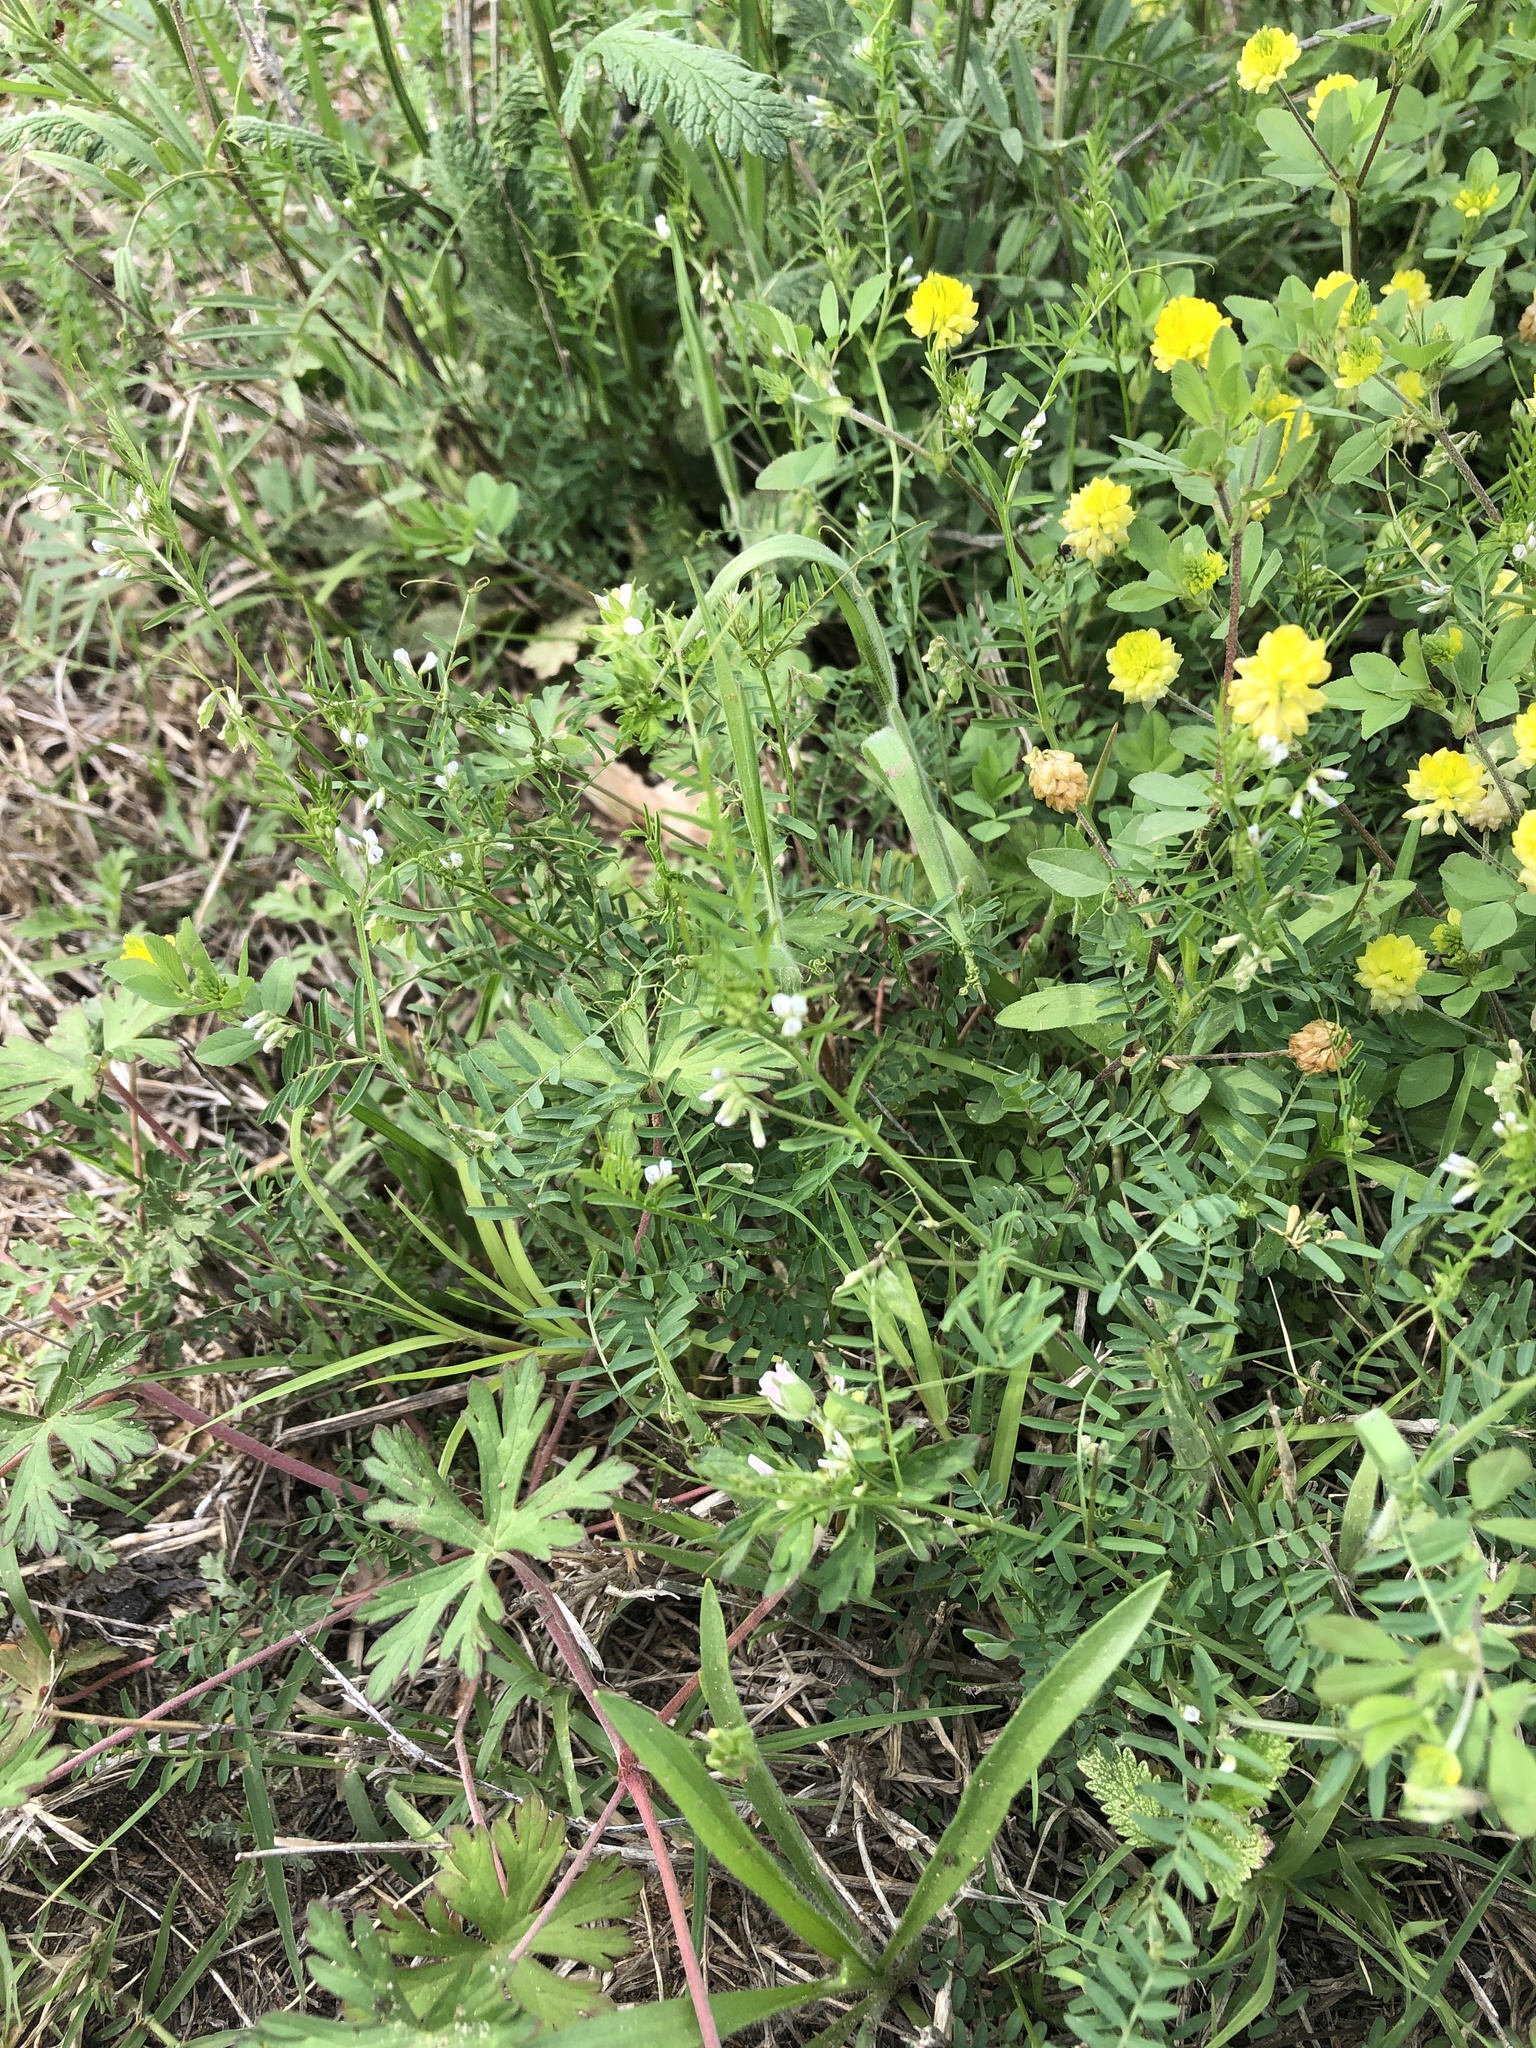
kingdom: Plantae
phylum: Tracheophyta
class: Magnoliopsida
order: Fabales
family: Fabaceae
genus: Vicia
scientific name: Vicia hirsuta
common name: Tiny vetch
